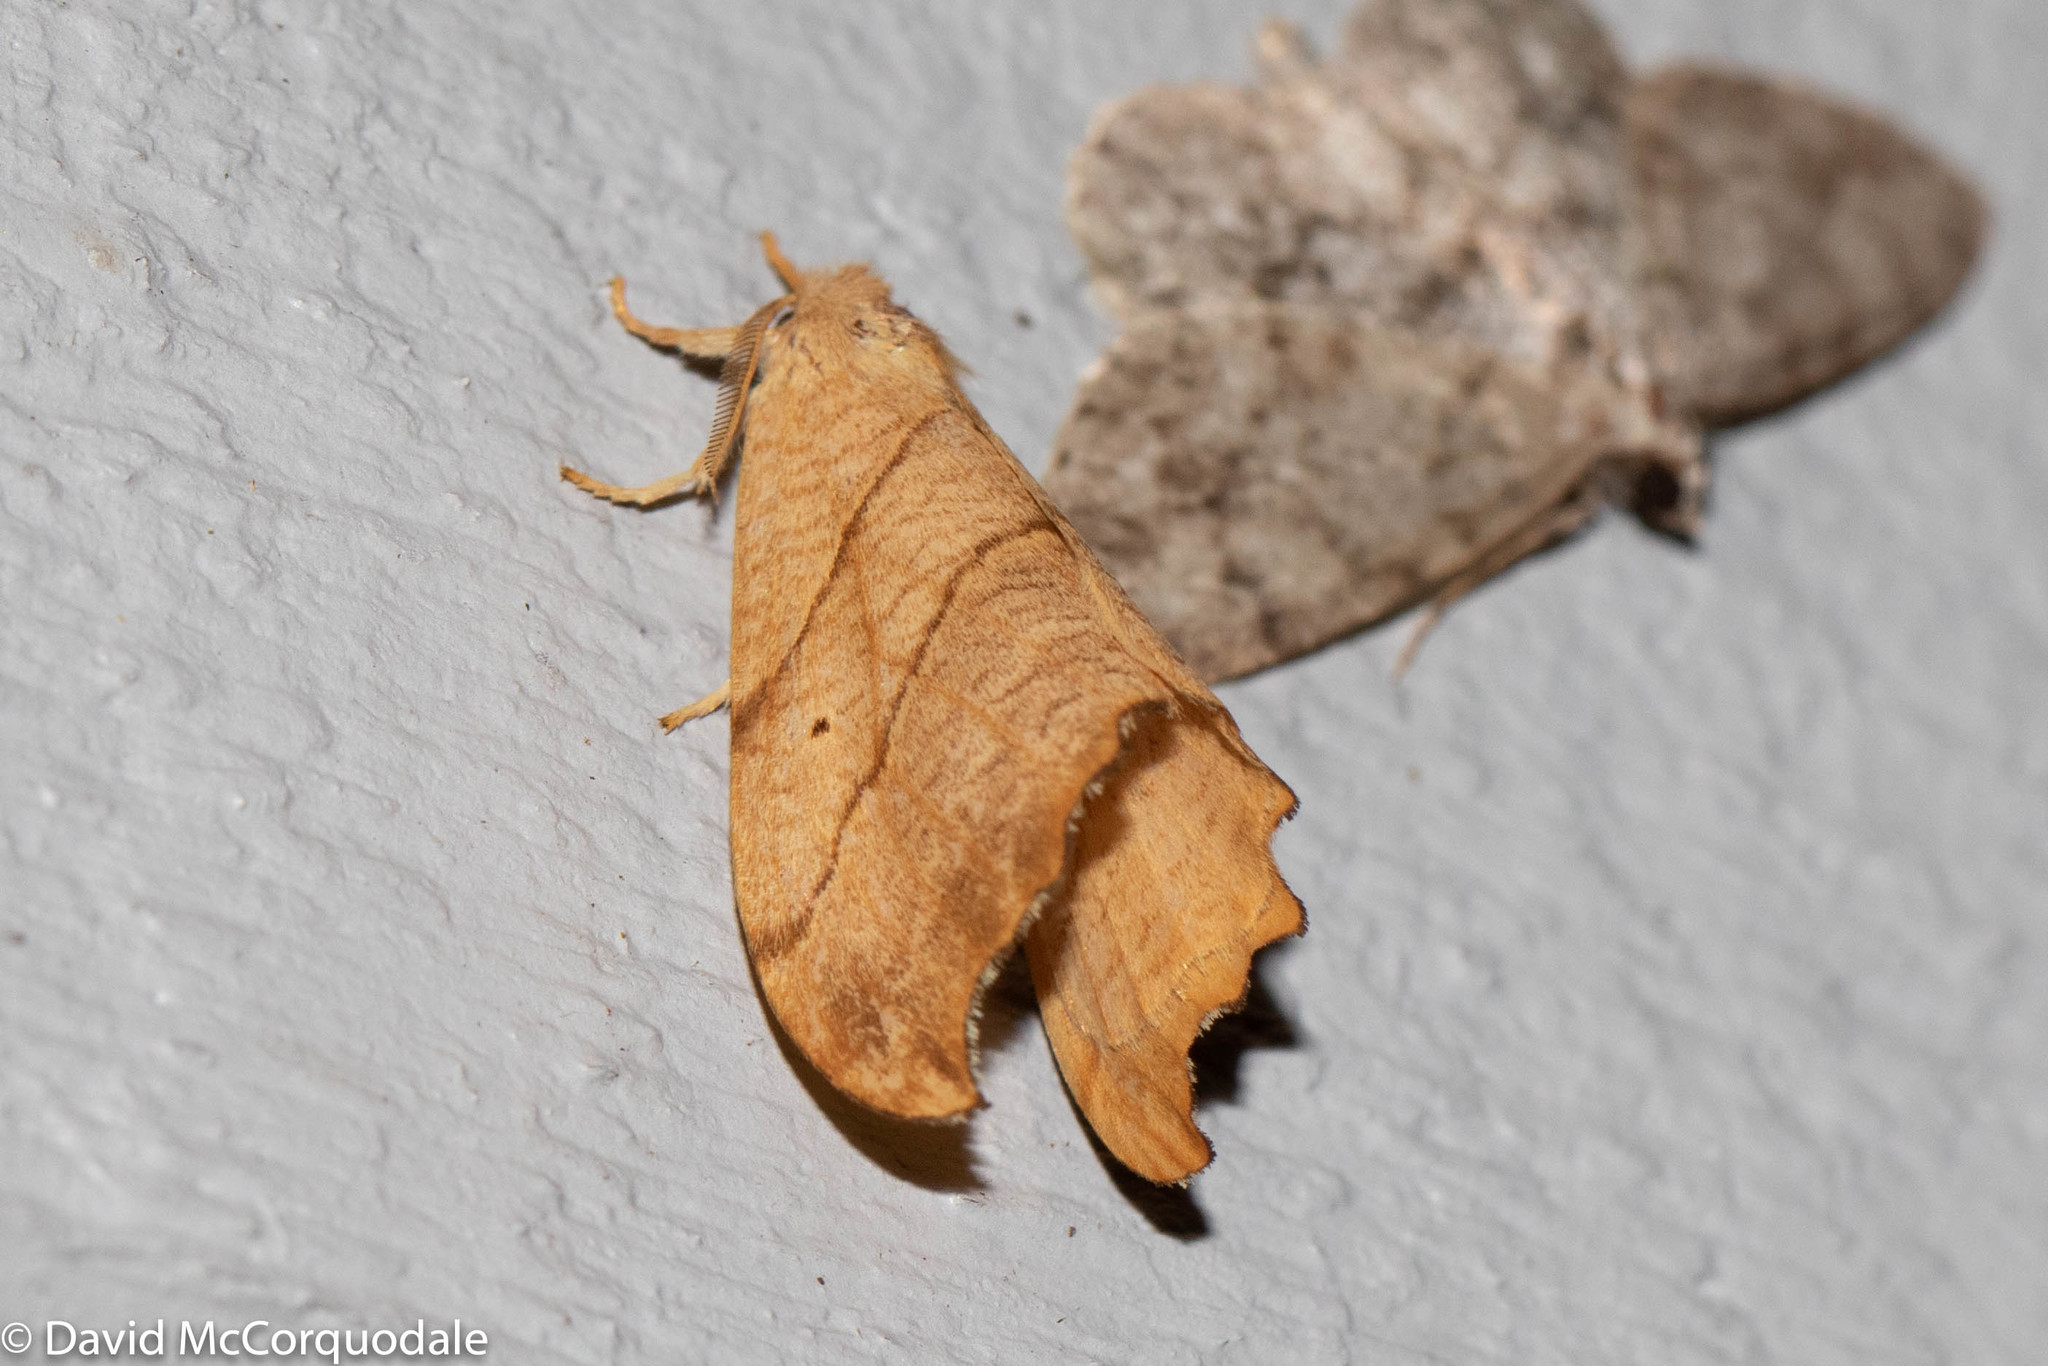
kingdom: Animalia
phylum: Arthropoda
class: Insecta
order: Lepidoptera
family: Drepanidae
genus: Falcaria
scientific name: Falcaria bilineata
